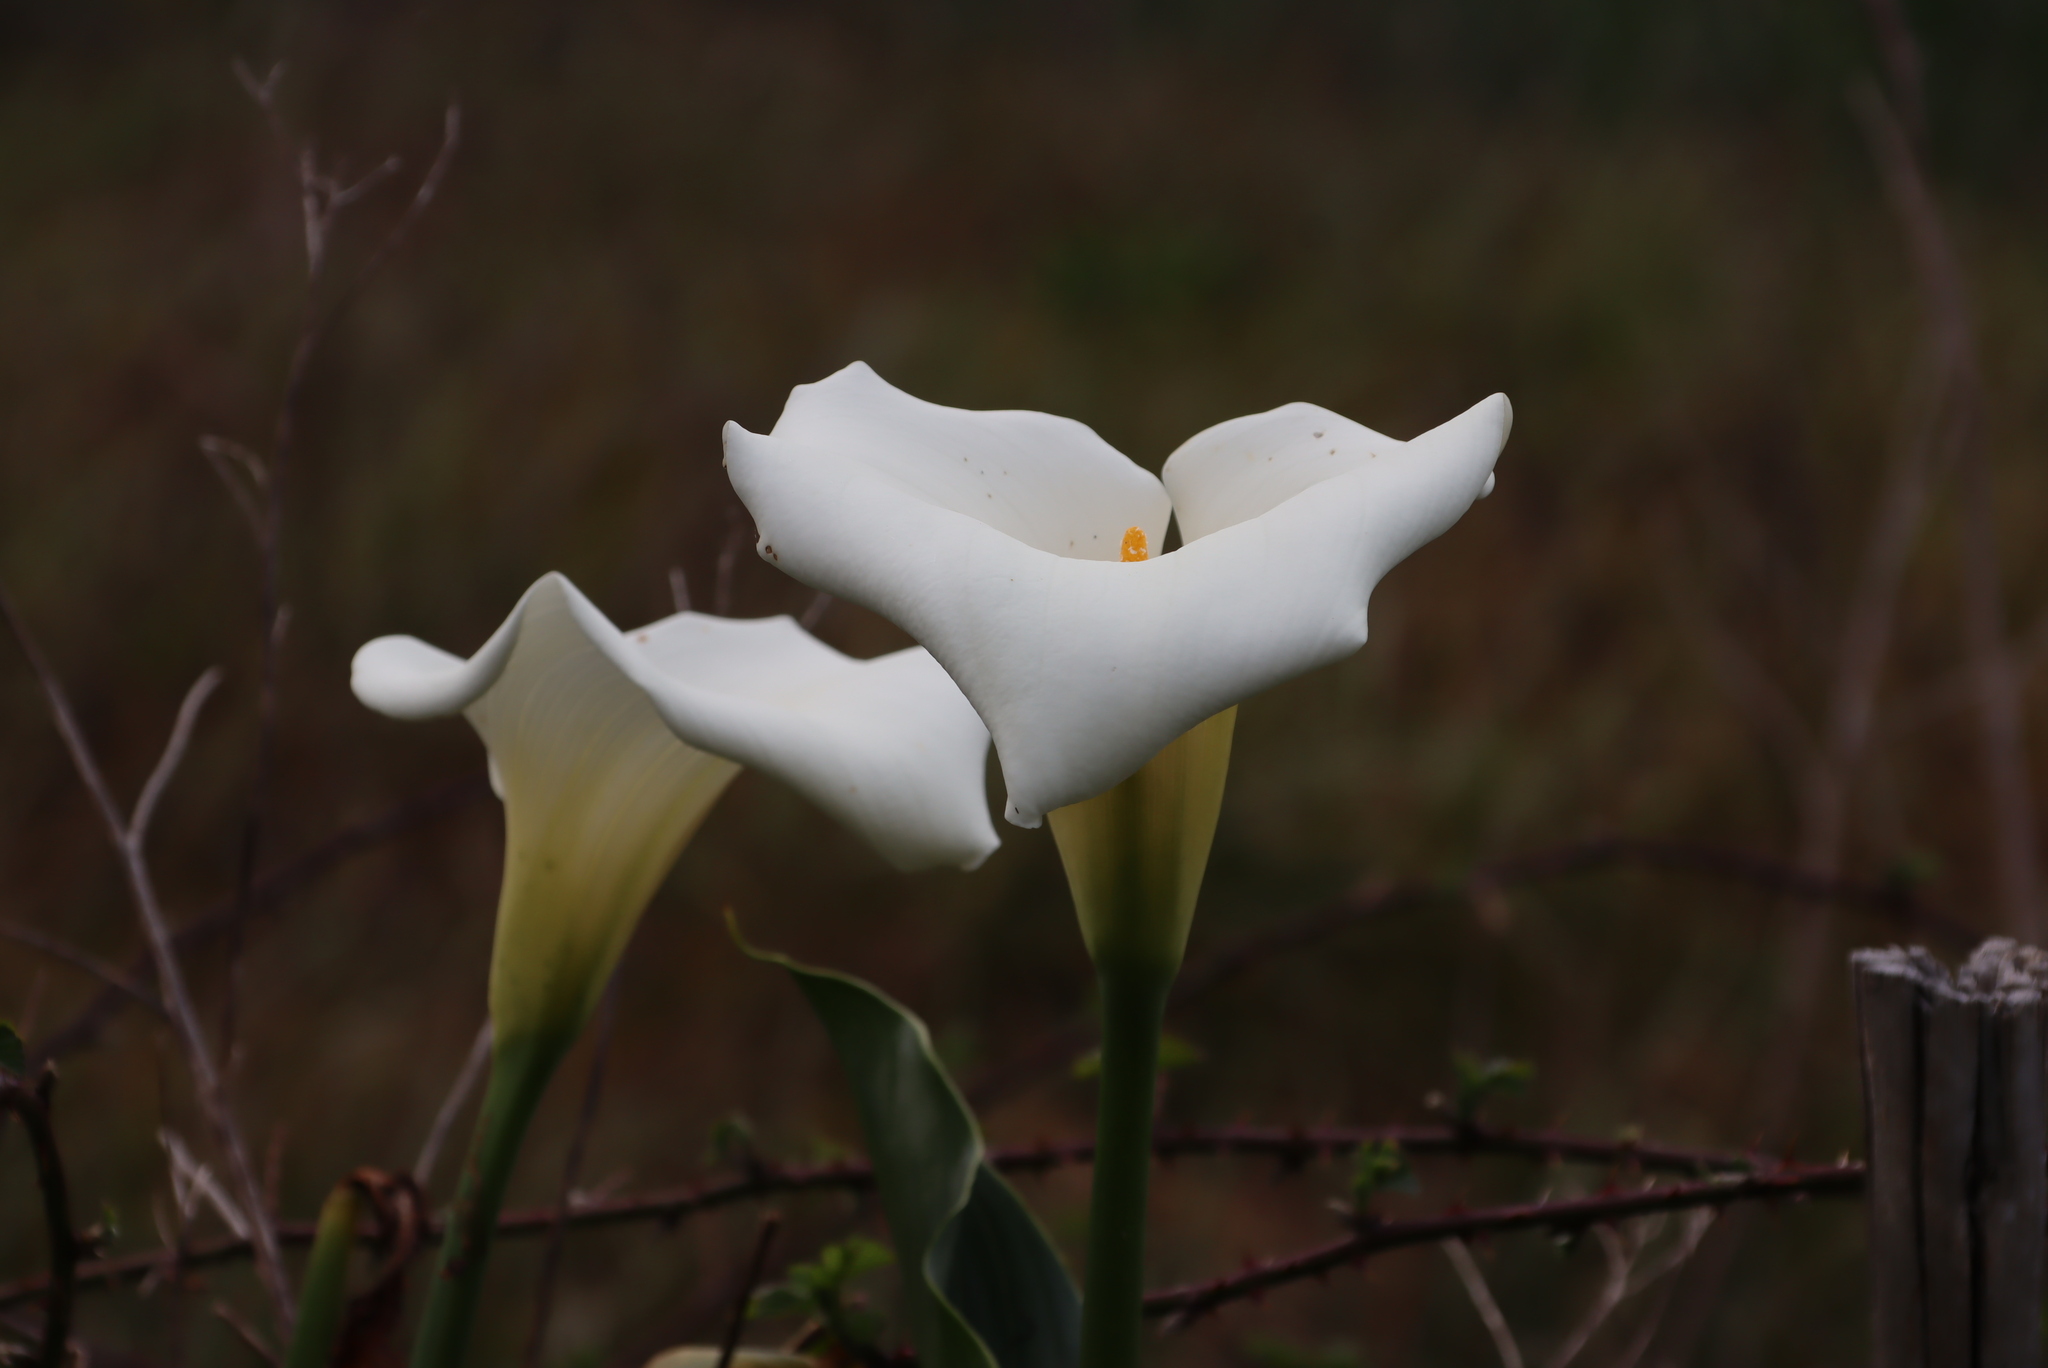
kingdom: Plantae
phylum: Tracheophyta
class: Liliopsida
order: Alismatales
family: Araceae
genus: Zantedeschia
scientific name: Zantedeschia aethiopica
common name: Altar-lily
